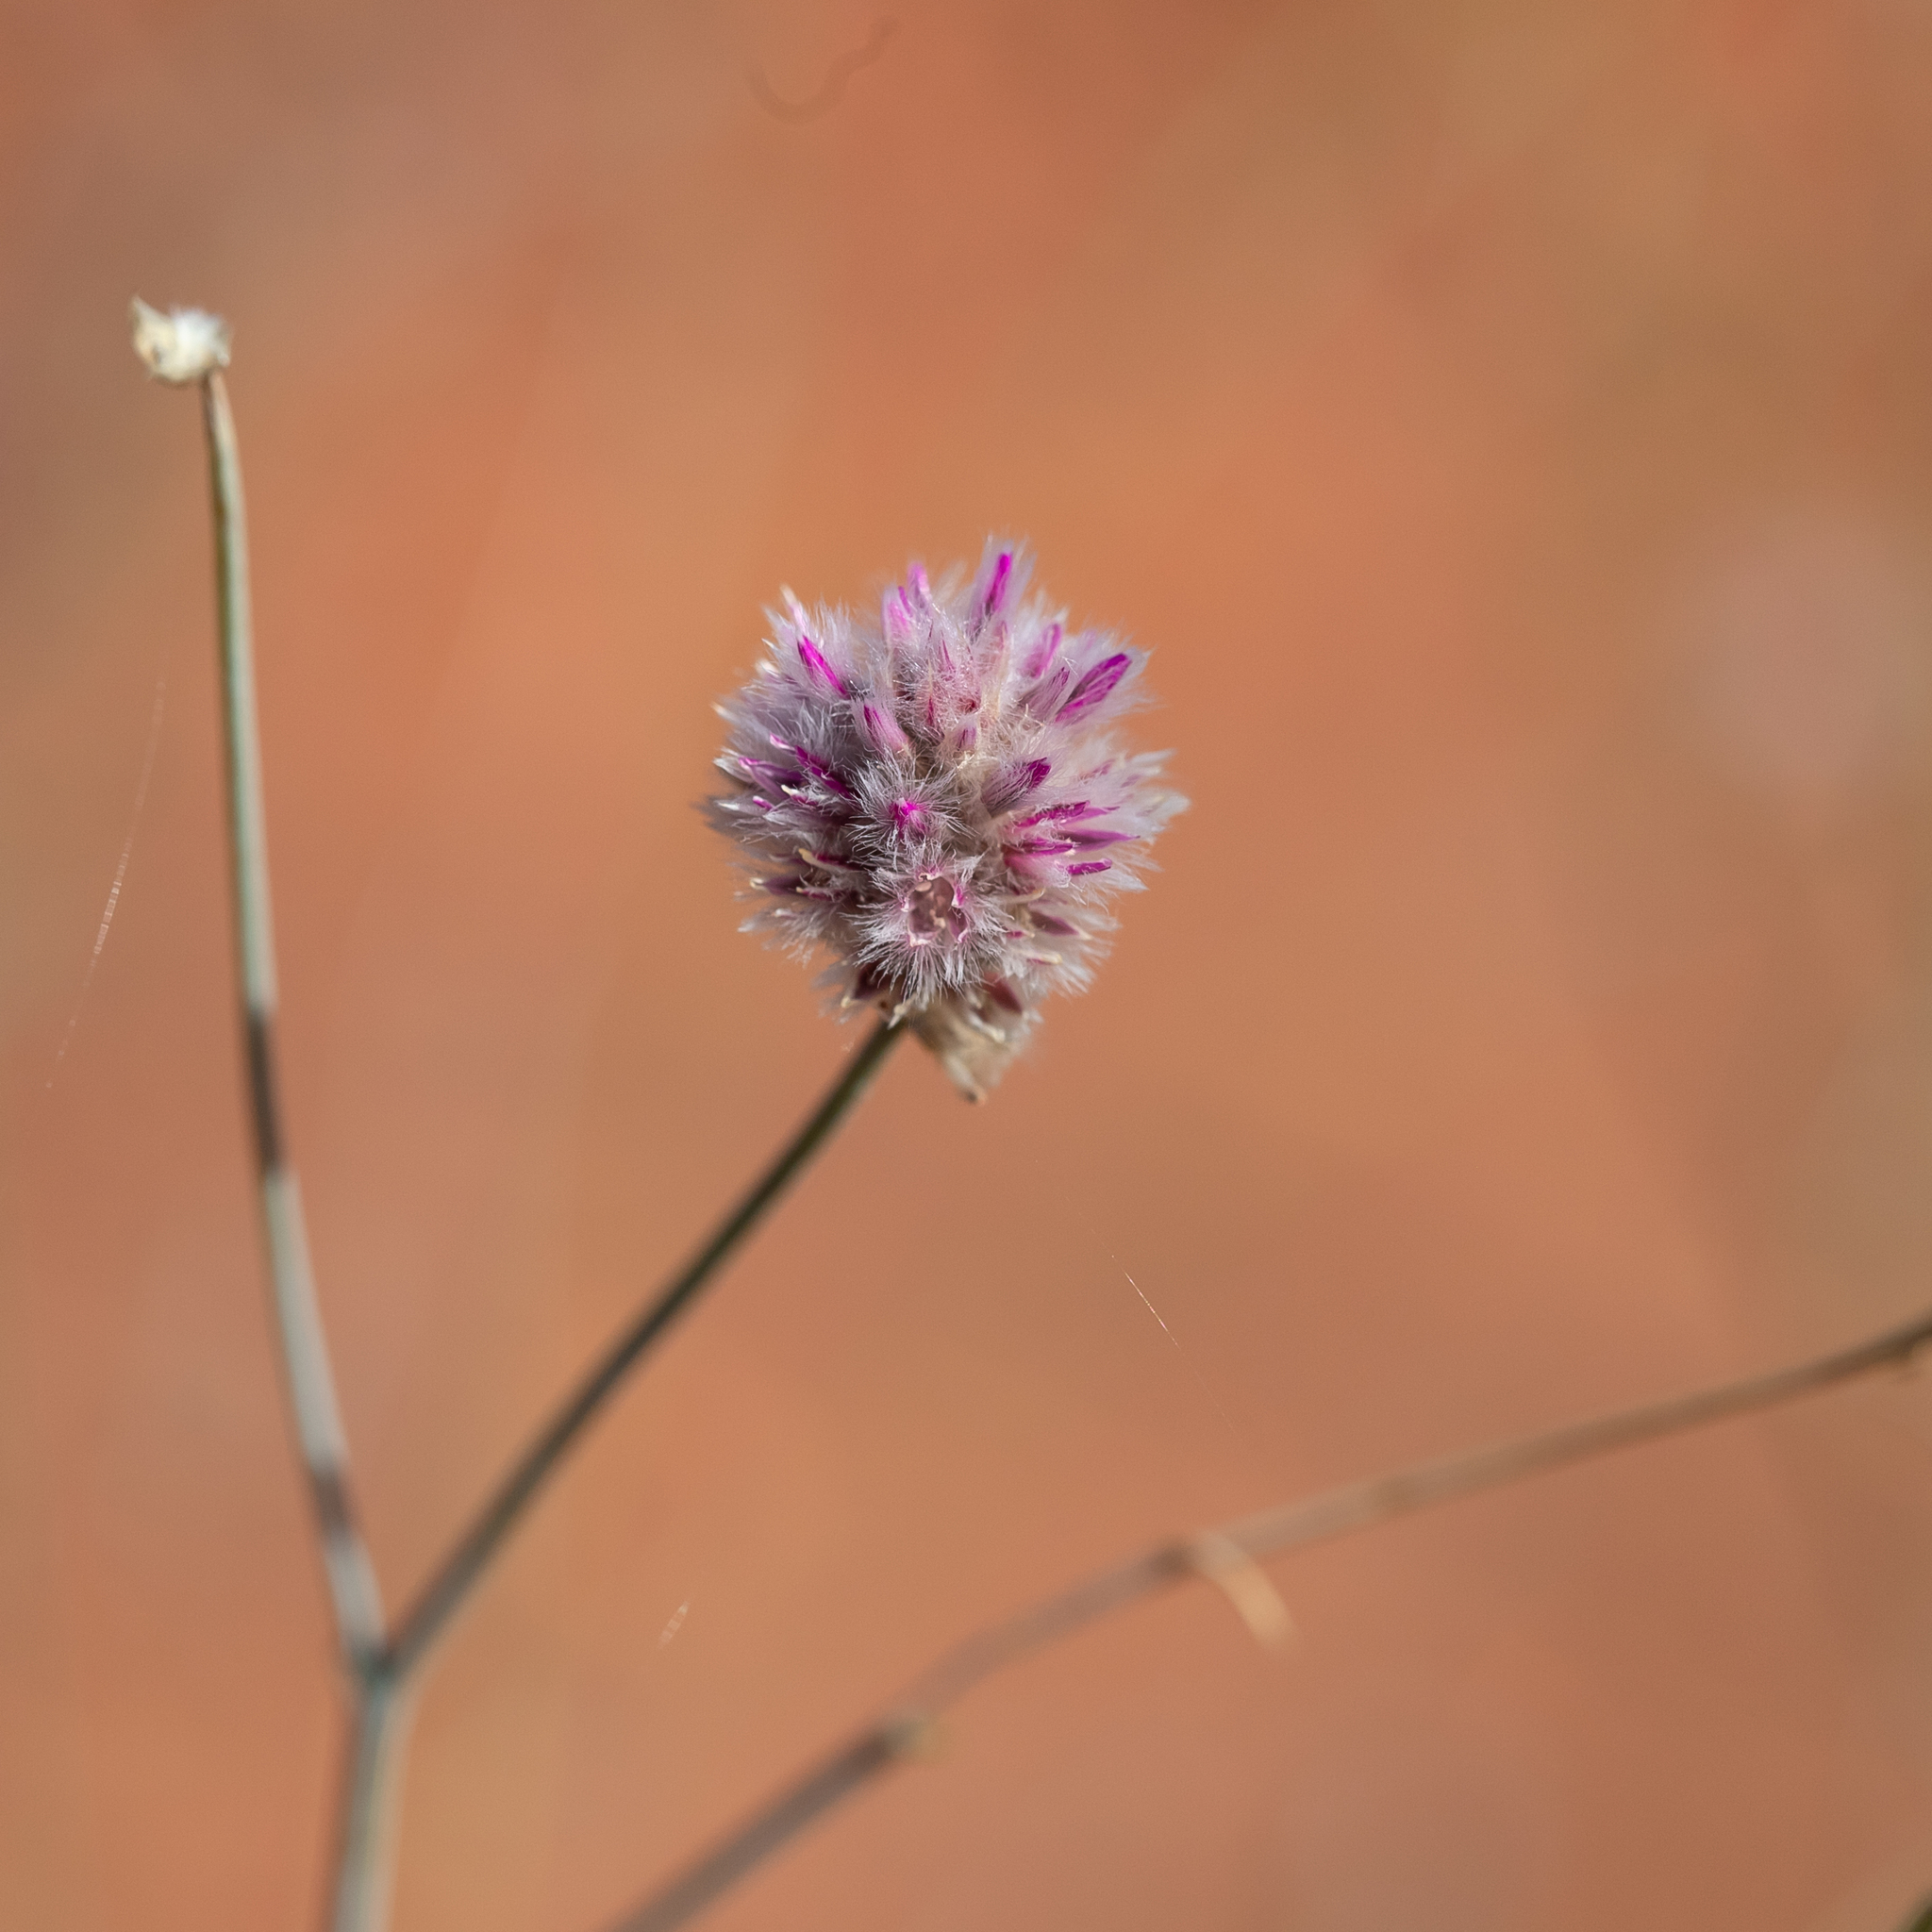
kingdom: Plantae
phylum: Tracheophyta
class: Magnoliopsida
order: Caryophyllales
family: Amaranthaceae
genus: Ptilotus
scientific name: Ptilotus schwartzii
